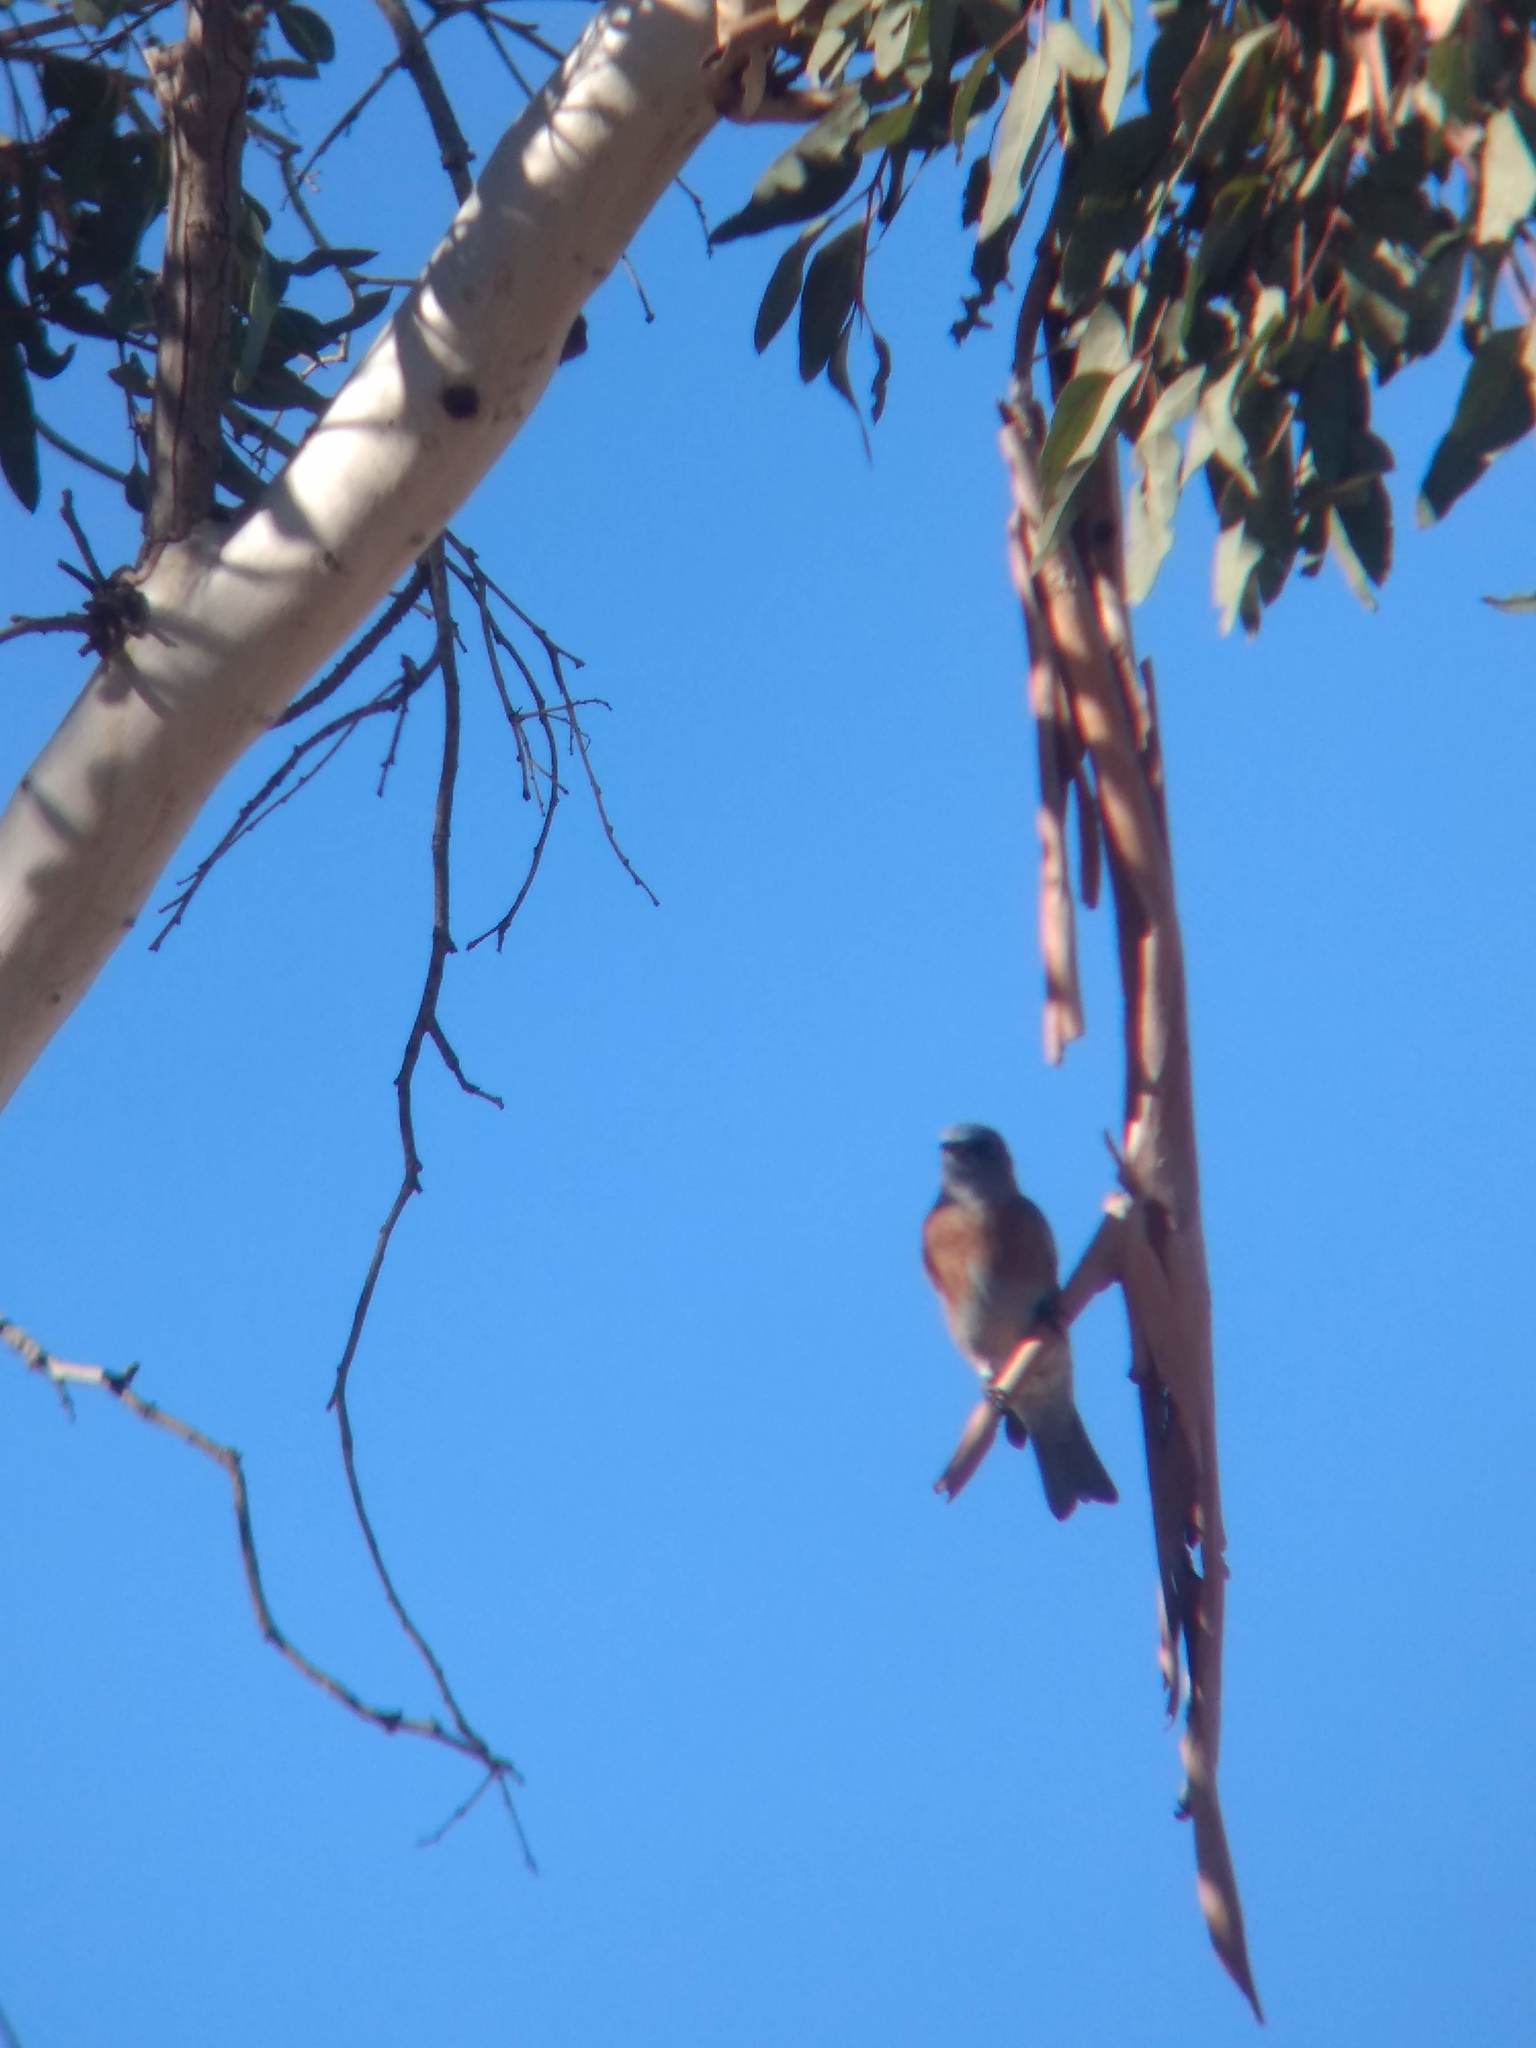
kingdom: Animalia
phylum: Chordata
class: Aves
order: Passeriformes
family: Turdidae
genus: Sialia
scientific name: Sialia mexicana
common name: Western bluebird
